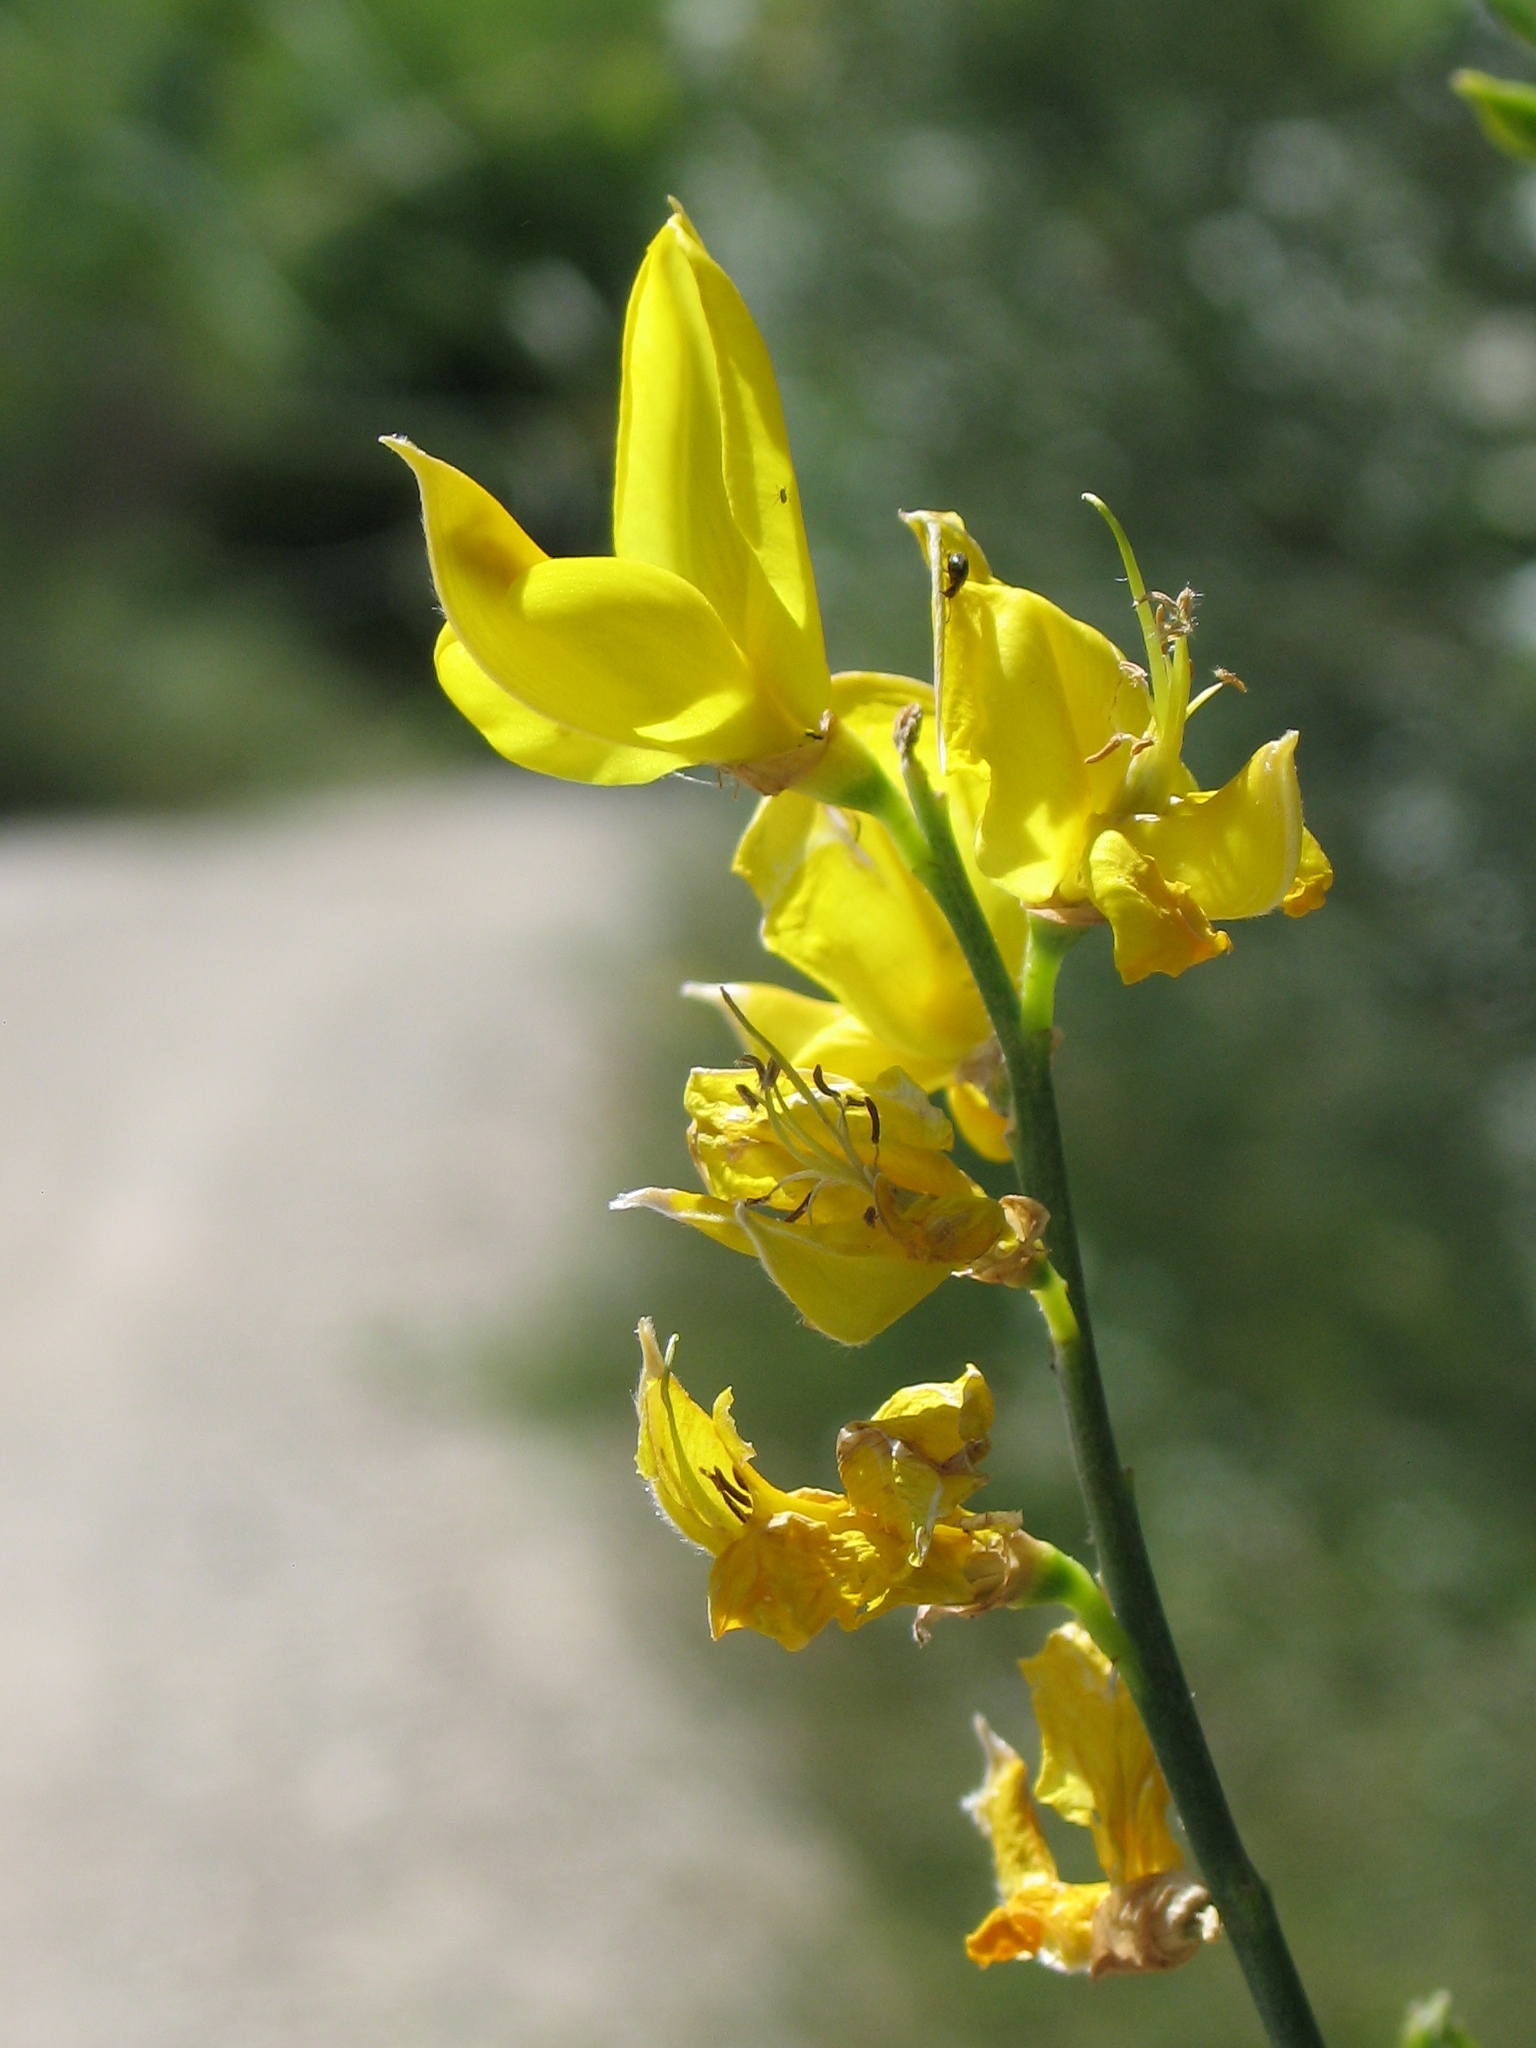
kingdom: Plantae
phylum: Tracheophyta
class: Magnoliopsida
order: Fabales
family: Fabaceae
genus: Spartium
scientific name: Spartium junceum
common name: Spanish broom
